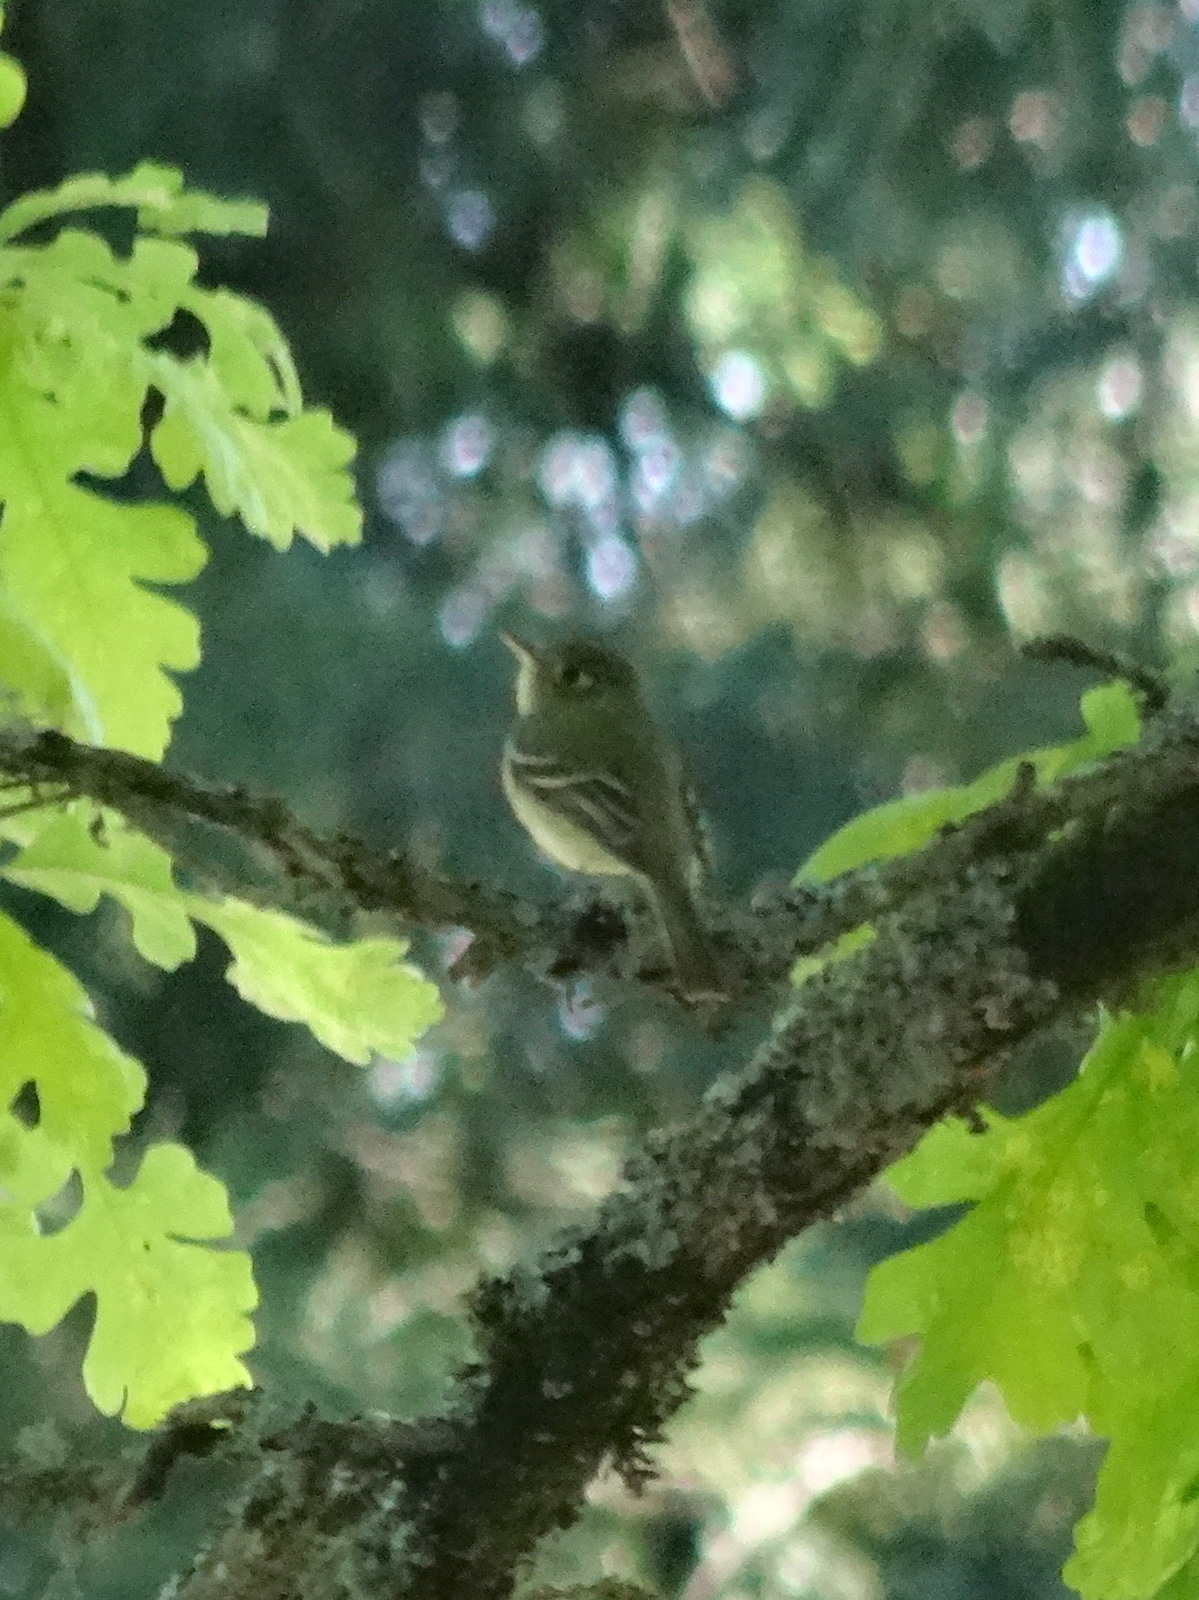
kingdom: Animalia
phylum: Chordata
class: Aves
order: Passeriformes
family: Tyrannidae
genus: Empidonax
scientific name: Empidonax difficilis
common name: Pacific-slope flycatcher
